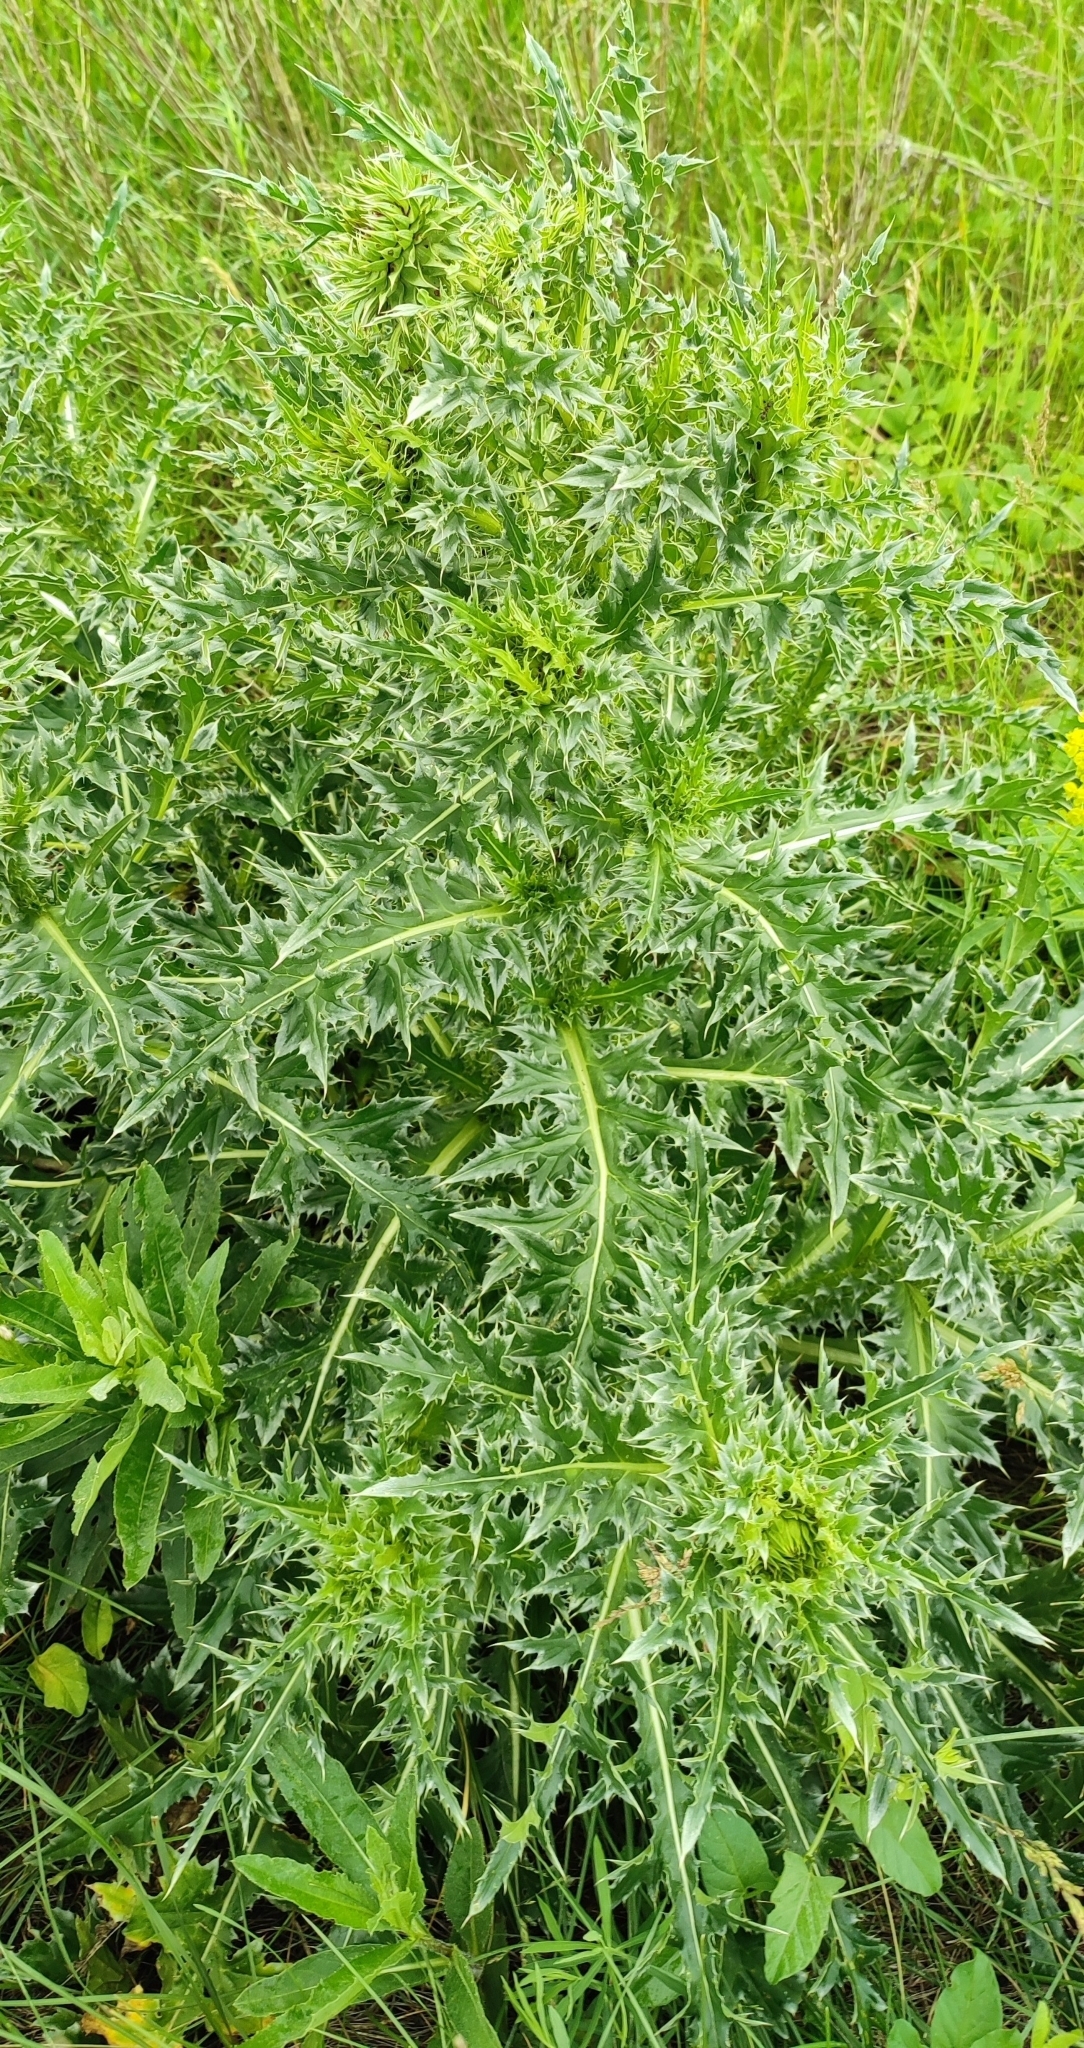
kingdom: Plantae
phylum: Tracheophyta
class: Magnoliopsida
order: Asterales
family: Asteraceae
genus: Carduus
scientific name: Carduus nutans
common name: Musk thistle
